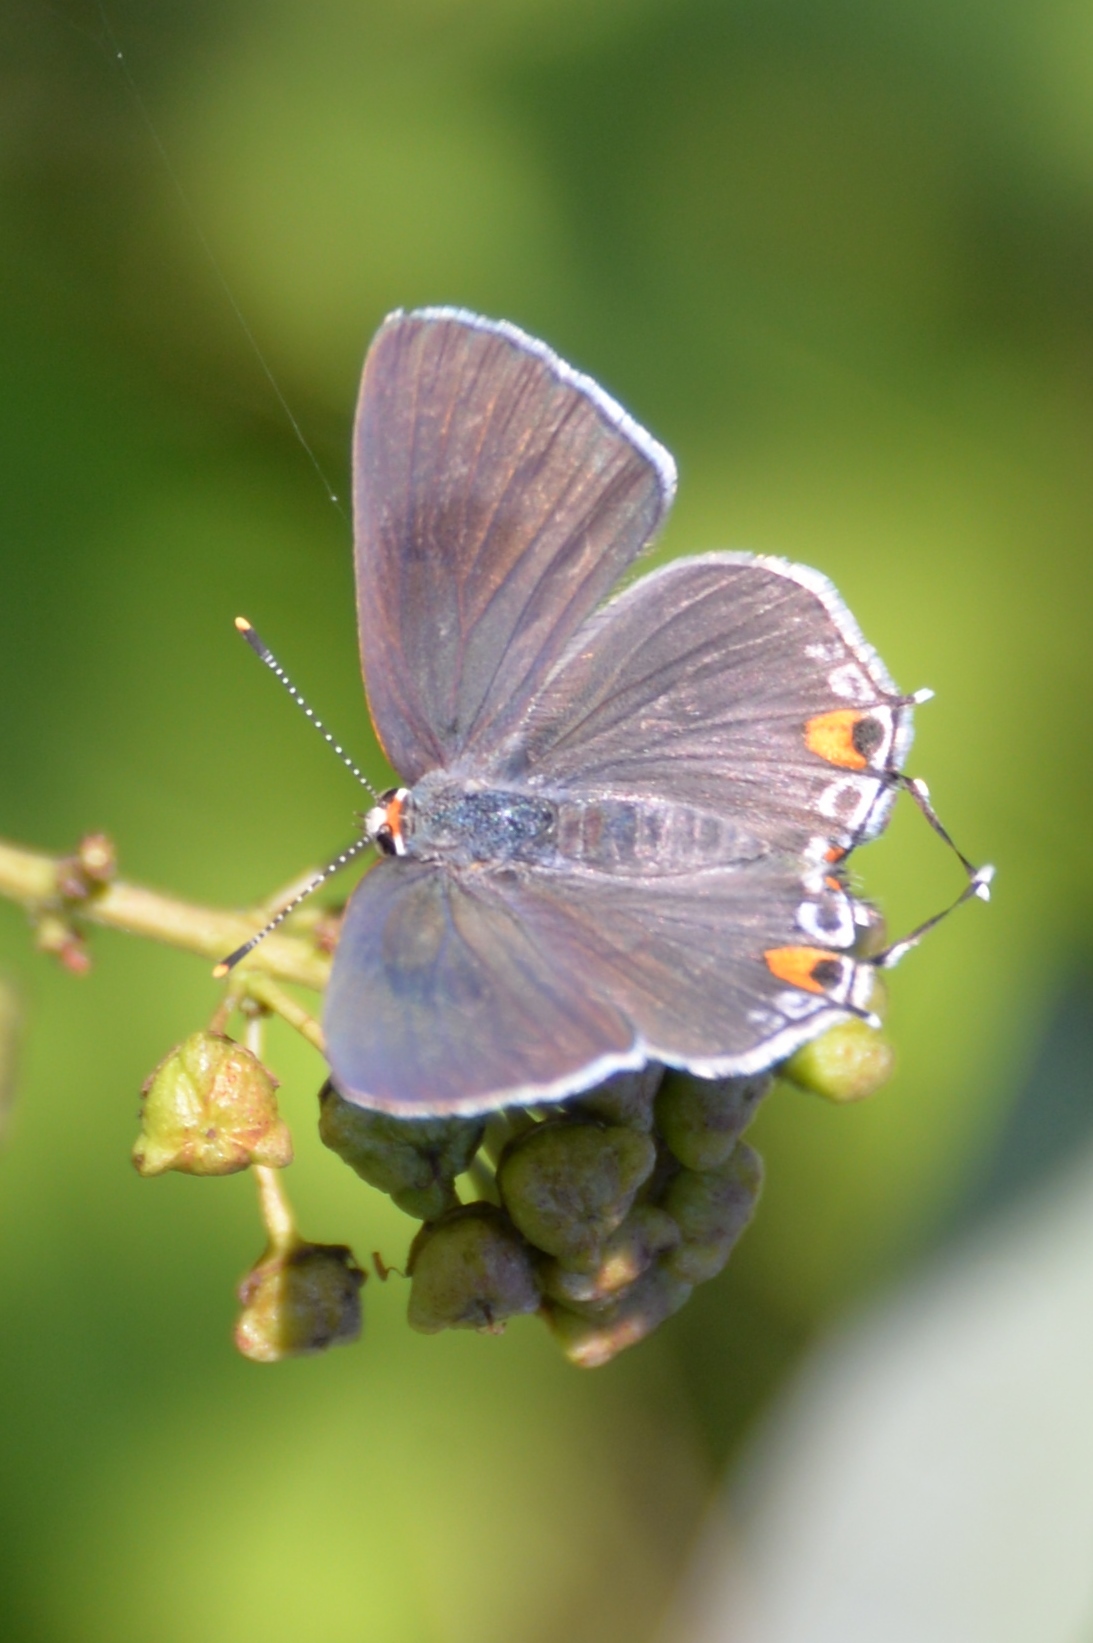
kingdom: Animalia
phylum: Arthropoda
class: Insecta
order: Lepidoptera
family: Lycaenidae
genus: Strymon
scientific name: Strymon melinus
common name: Gray hairstreak
